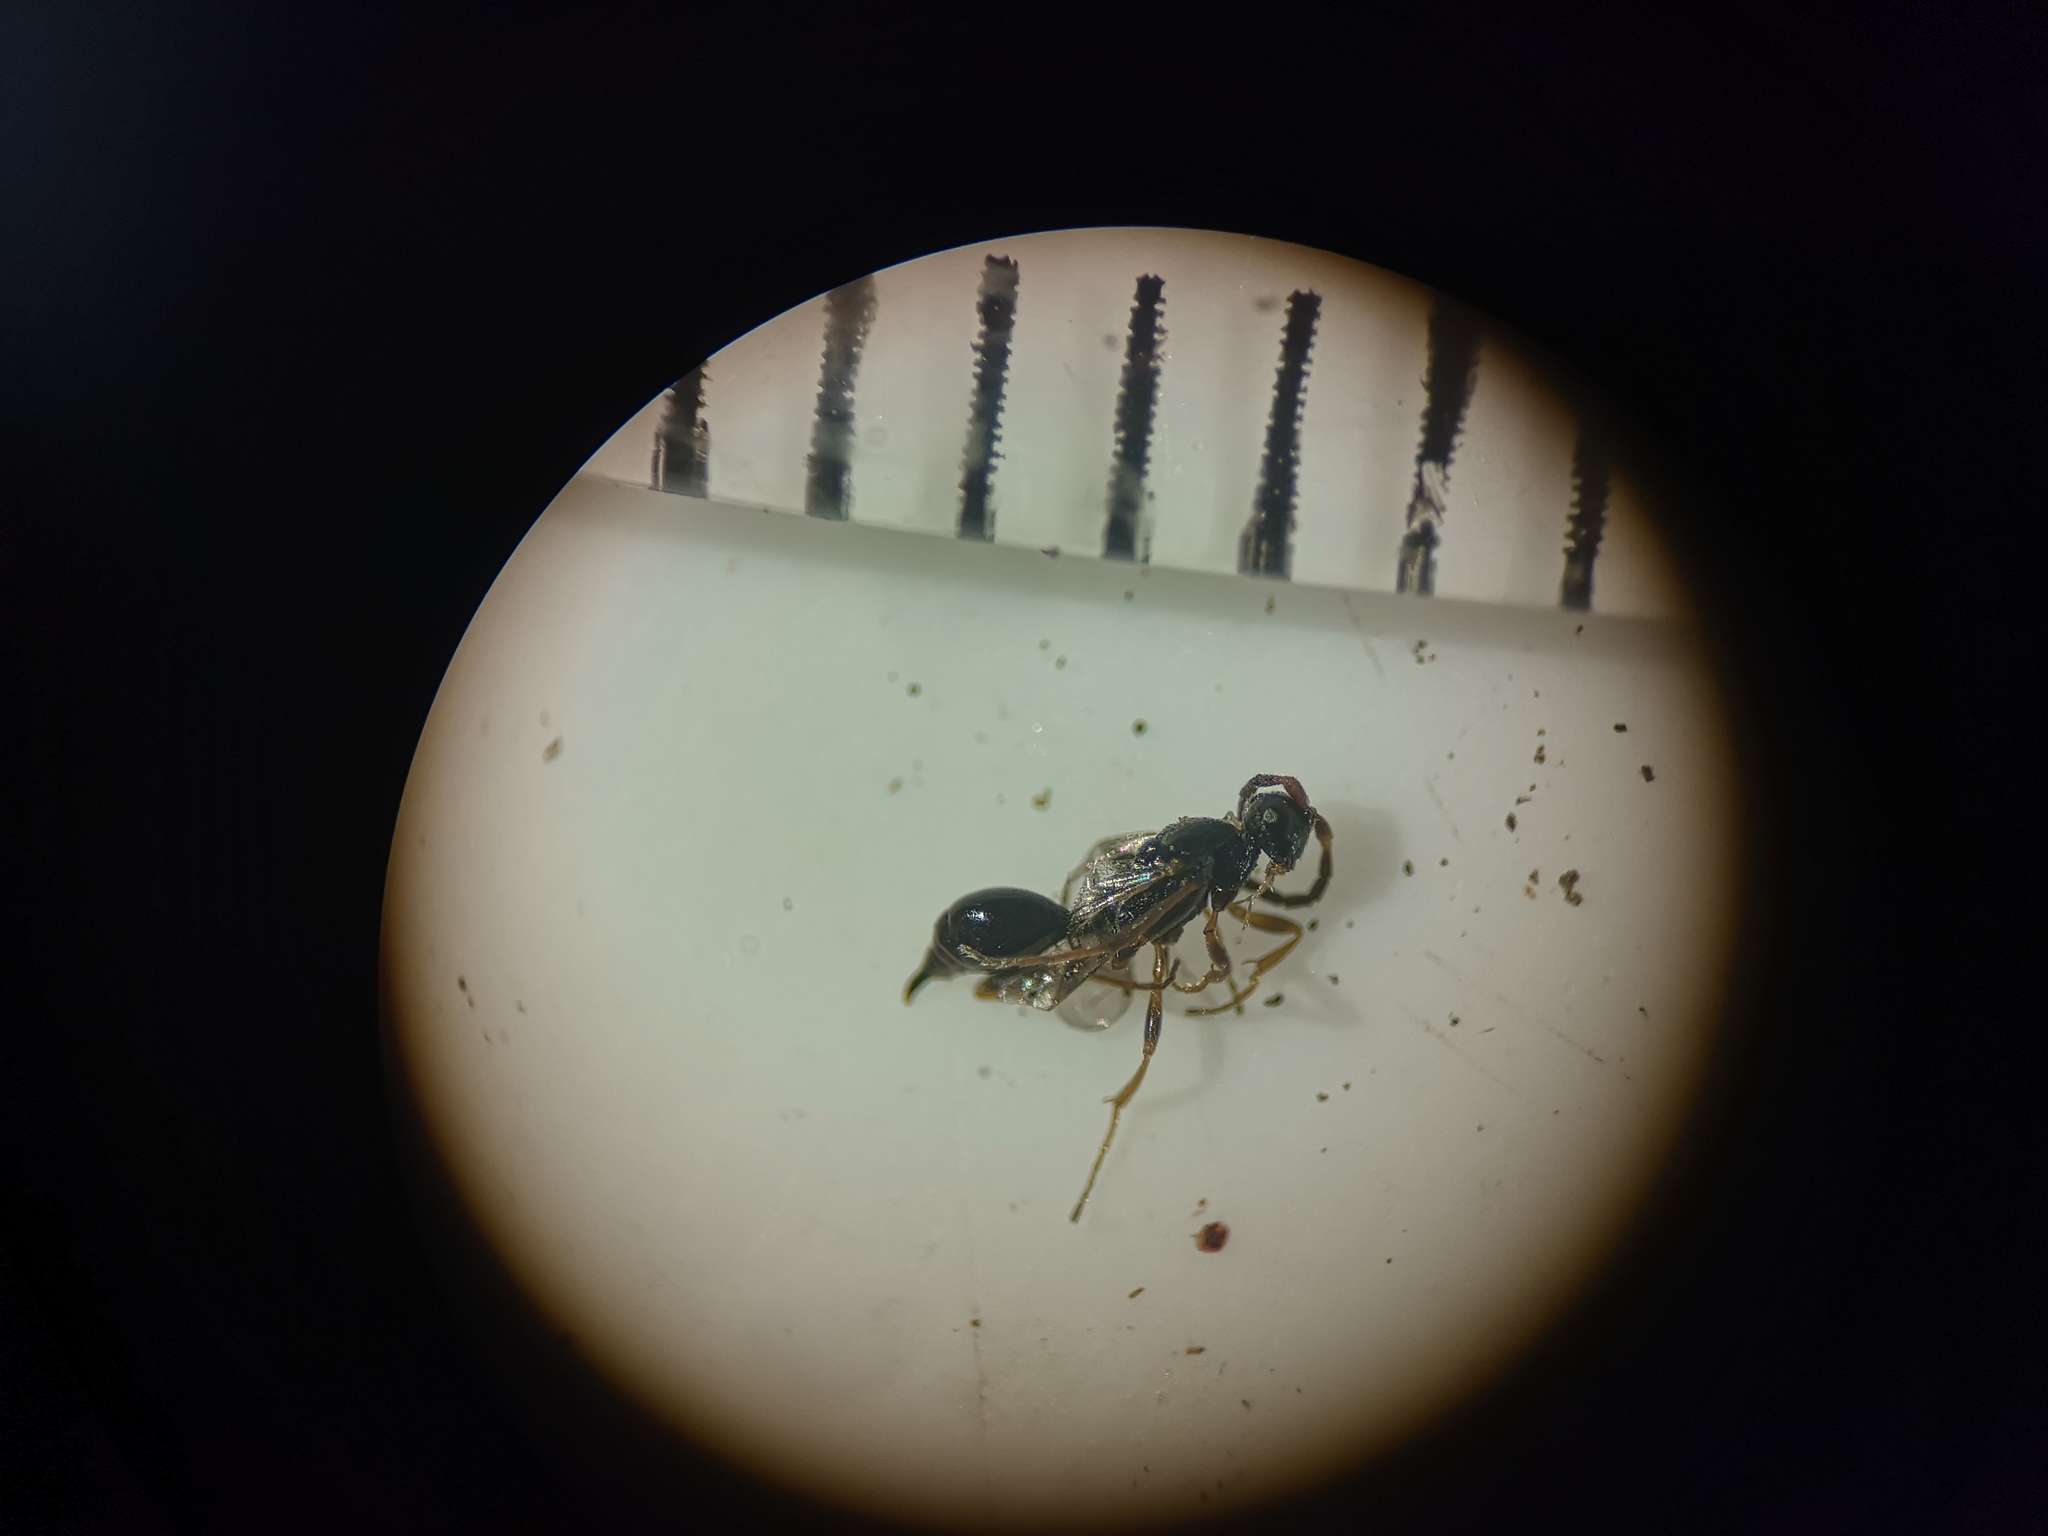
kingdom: Animalia
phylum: Arthropoda
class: Insecta
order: Hymenoptera
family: Proctotrupidae
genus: Phaneroserphus
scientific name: Phaneroserphus calcar
